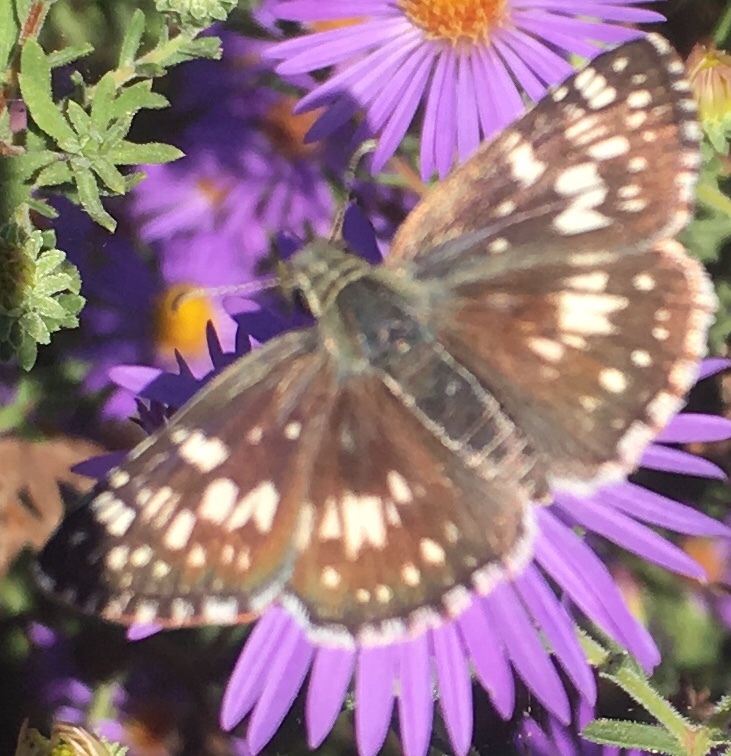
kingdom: Animalia
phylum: Arthropoda
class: Insecta
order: Lepidoptera
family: Hesperiidae
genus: Burnsius
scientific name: Burnsius communis
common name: Common checkered-skipper
